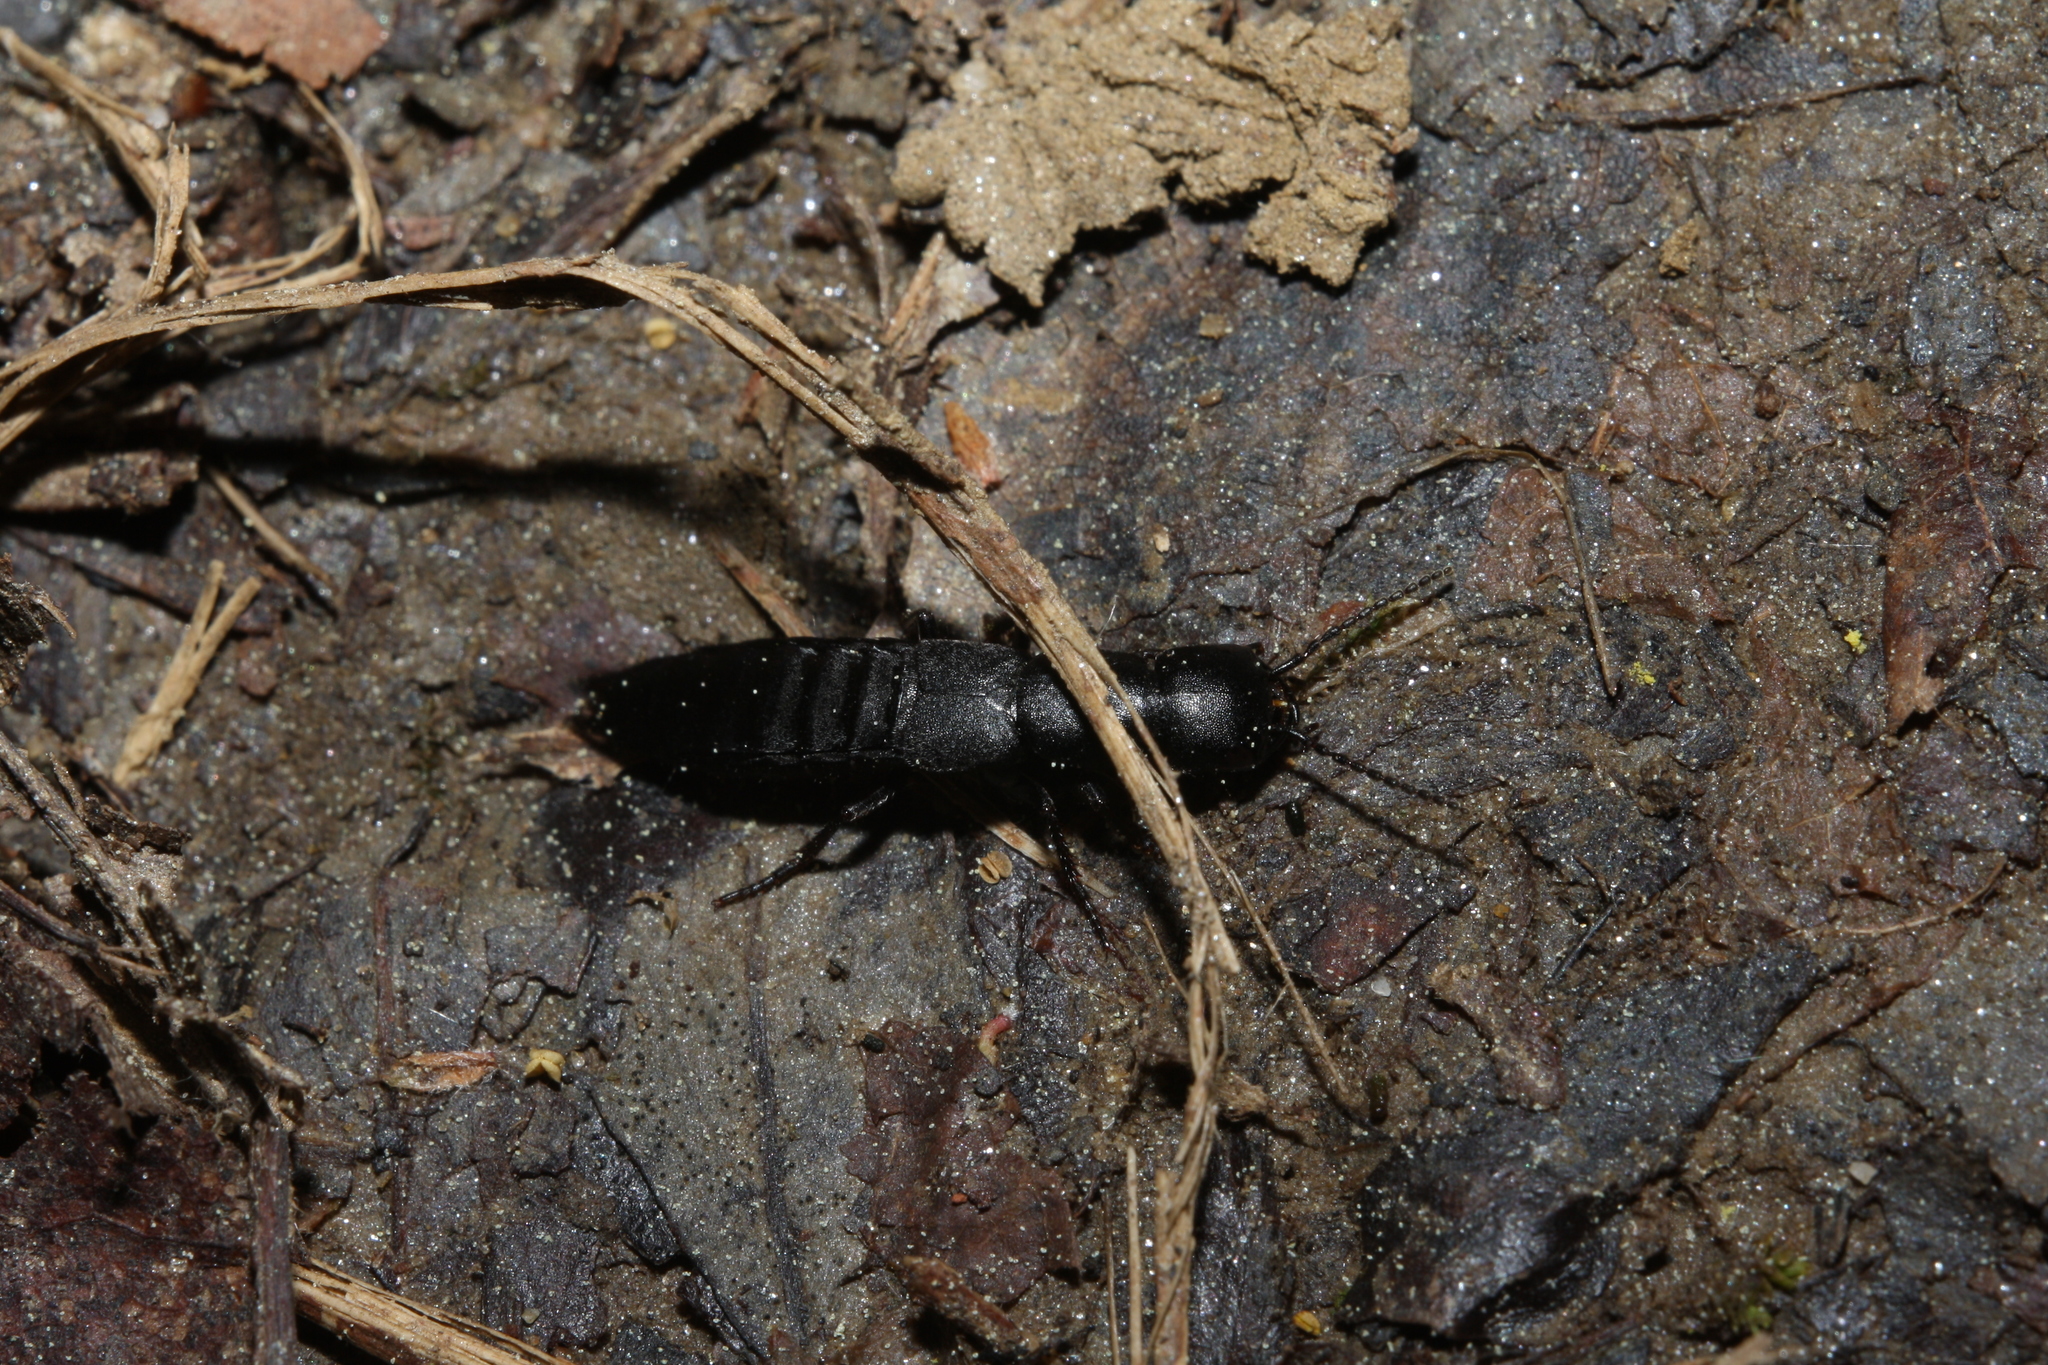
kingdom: Animalia
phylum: Arthropoda
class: Insecta
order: Coleoptera
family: Staphylinidae
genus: Ocypus
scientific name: Ocypus nitens
